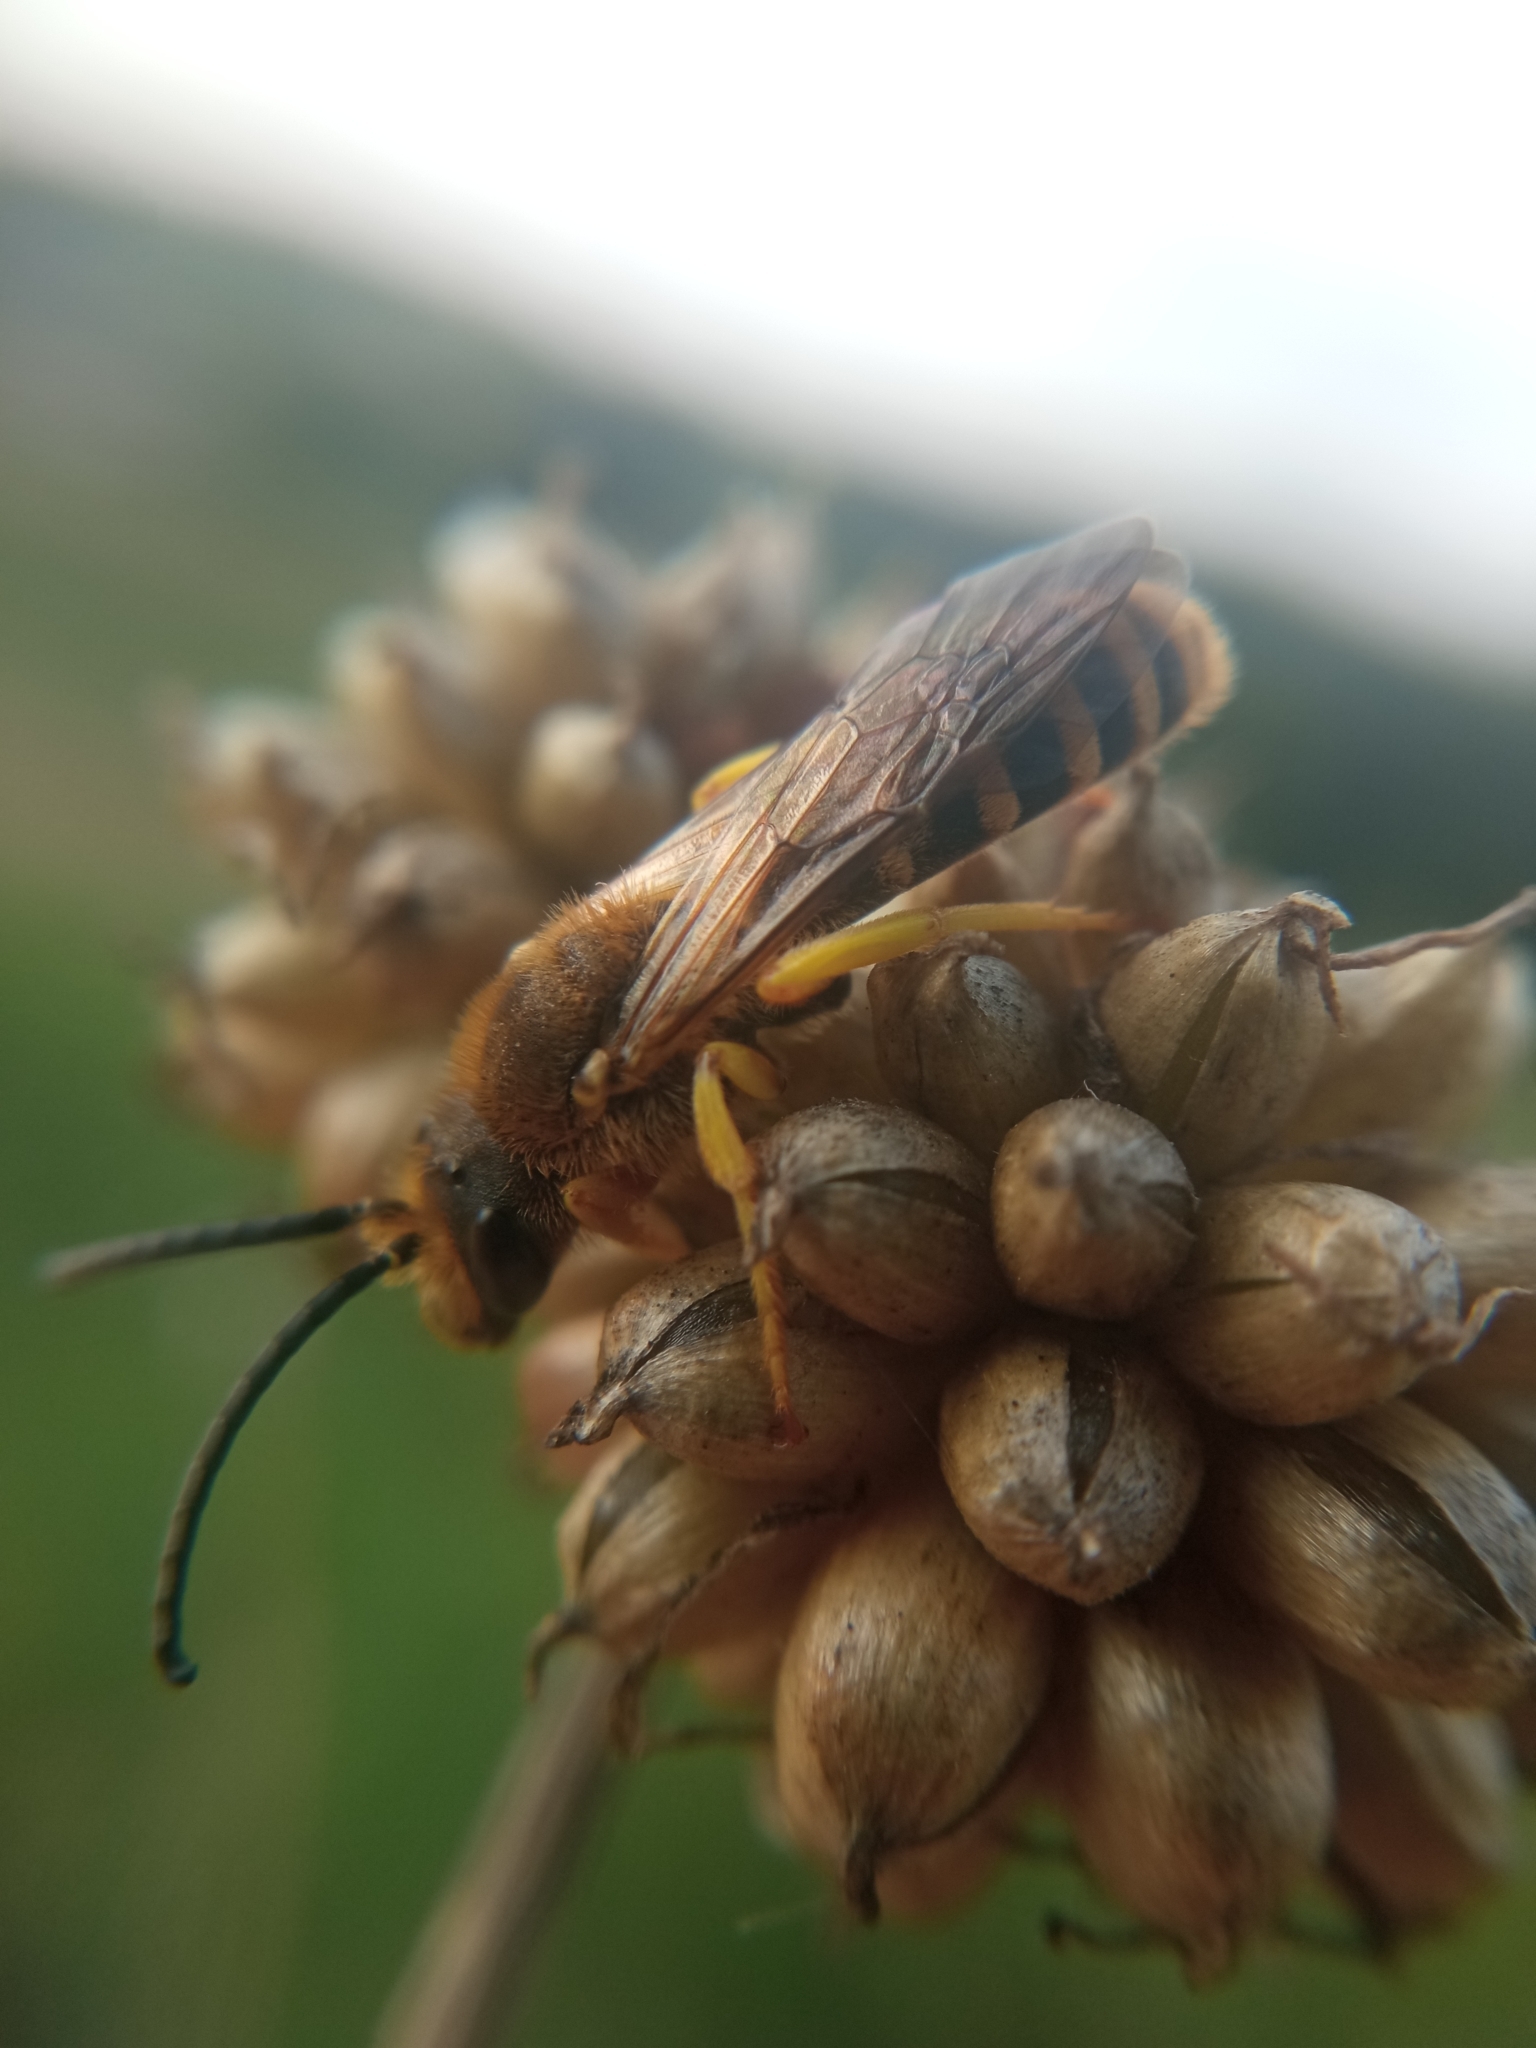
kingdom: Animalia
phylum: Arthropoda
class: Insecta
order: Hymenoptera
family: Halictidae
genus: Halictus
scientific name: Halictus scabiosae
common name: Great banded furrow bee
